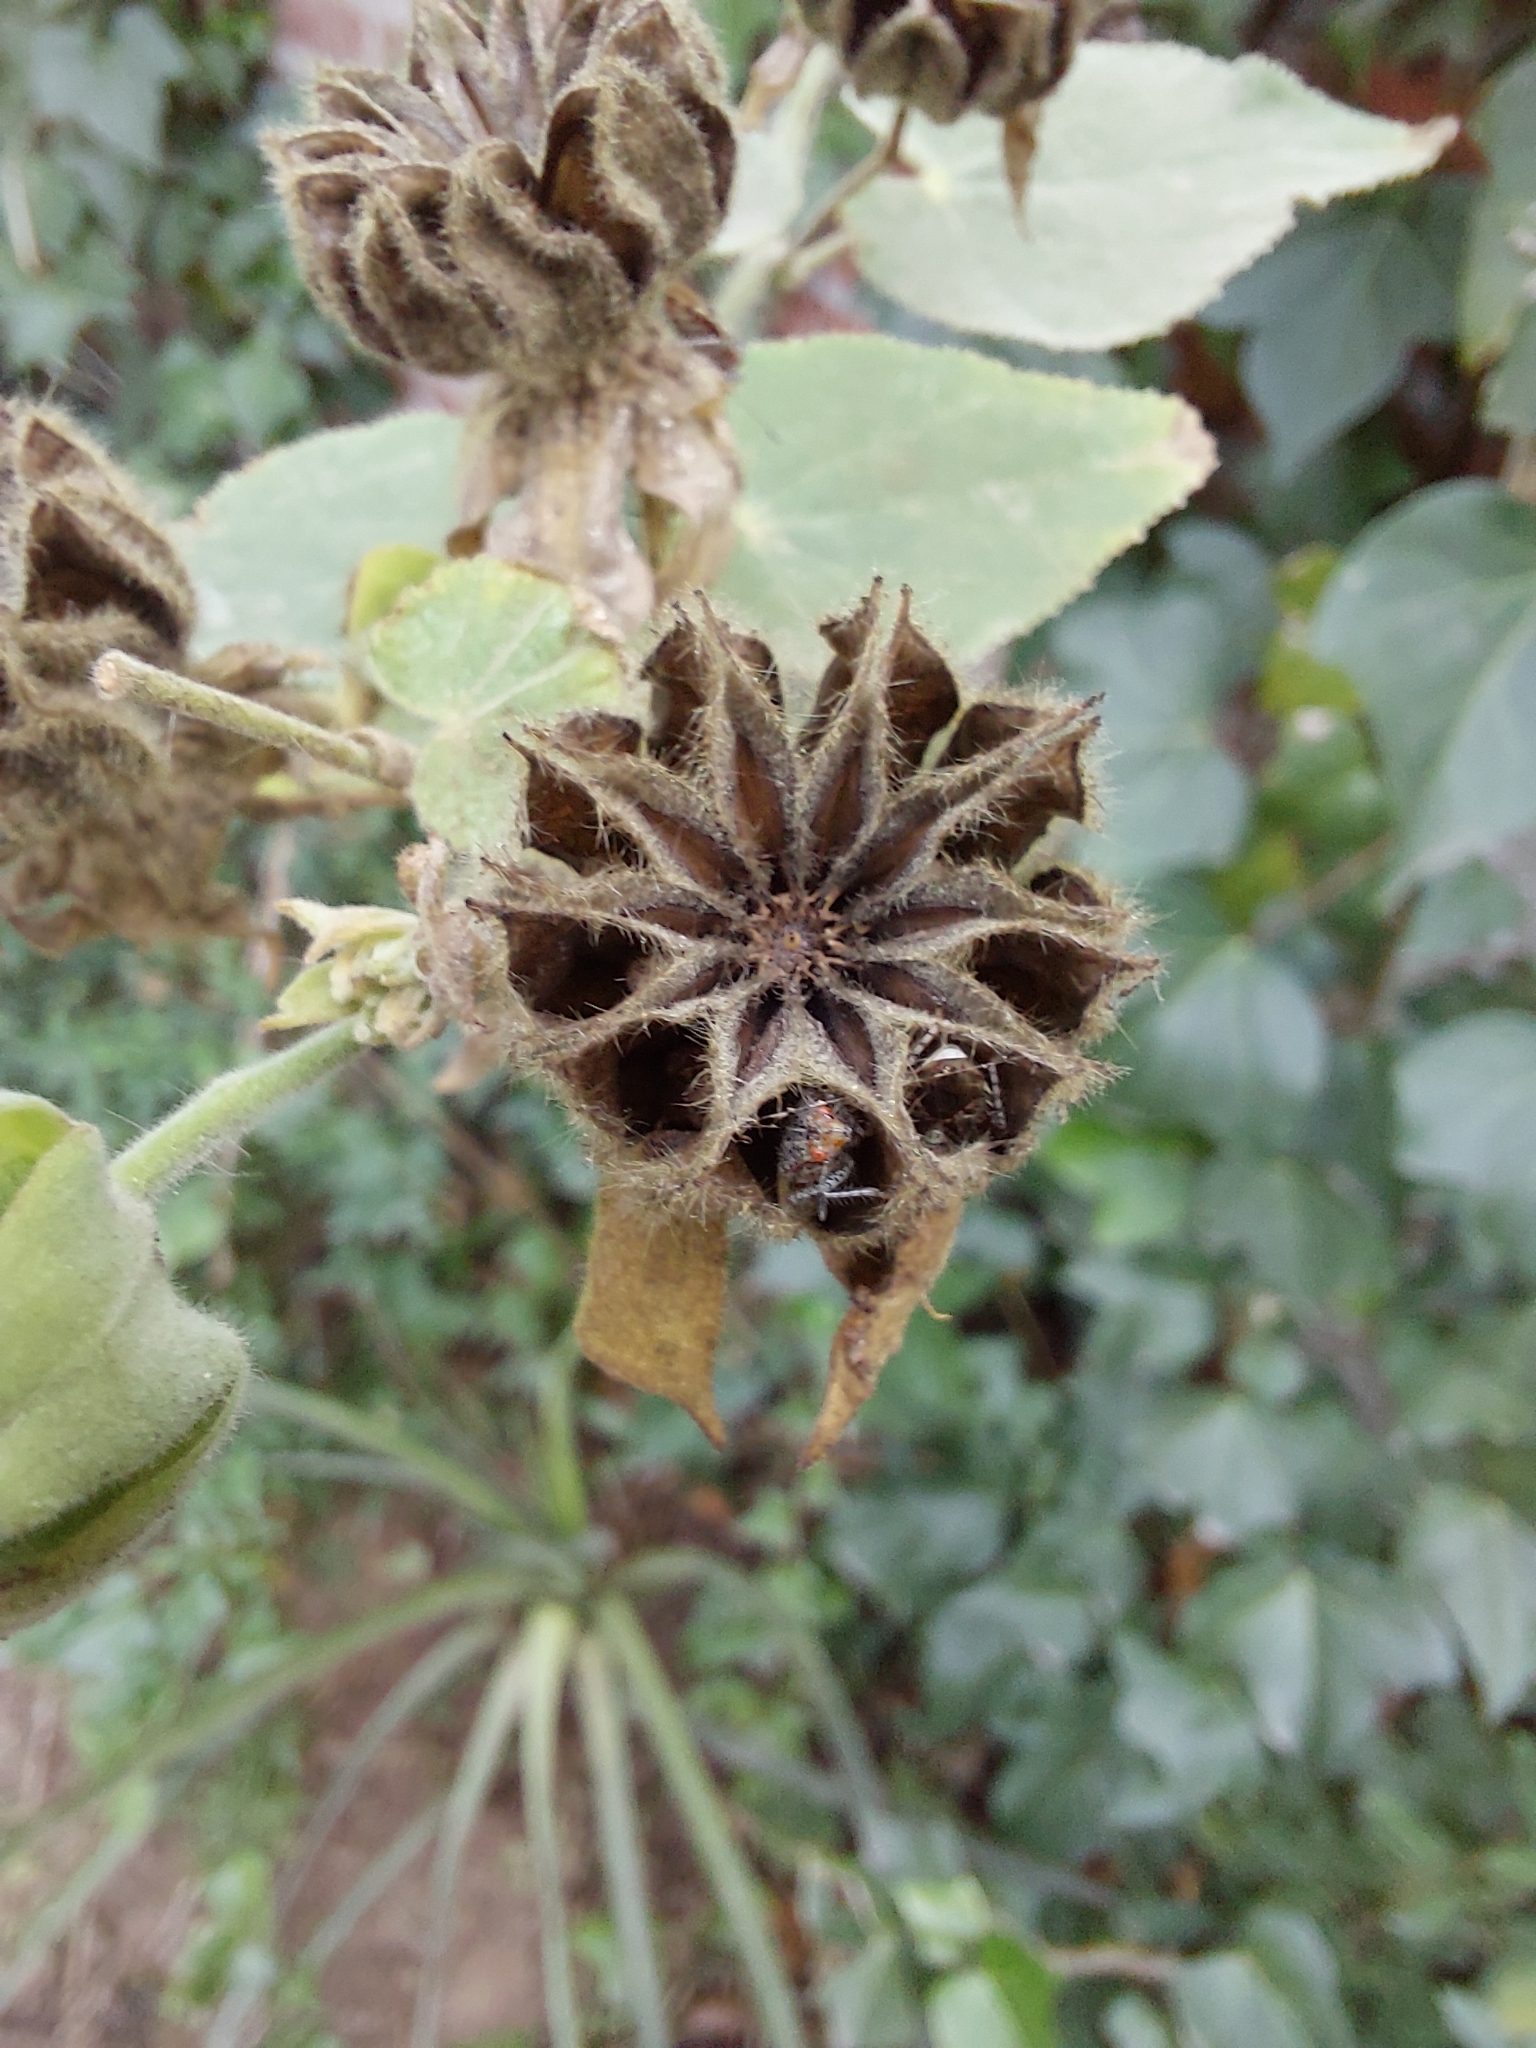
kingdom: Animalia
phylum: Arthropoda
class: Insecta
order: Hemiptera
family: Rhopalidae
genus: Niesthrea
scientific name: Niesthrea
